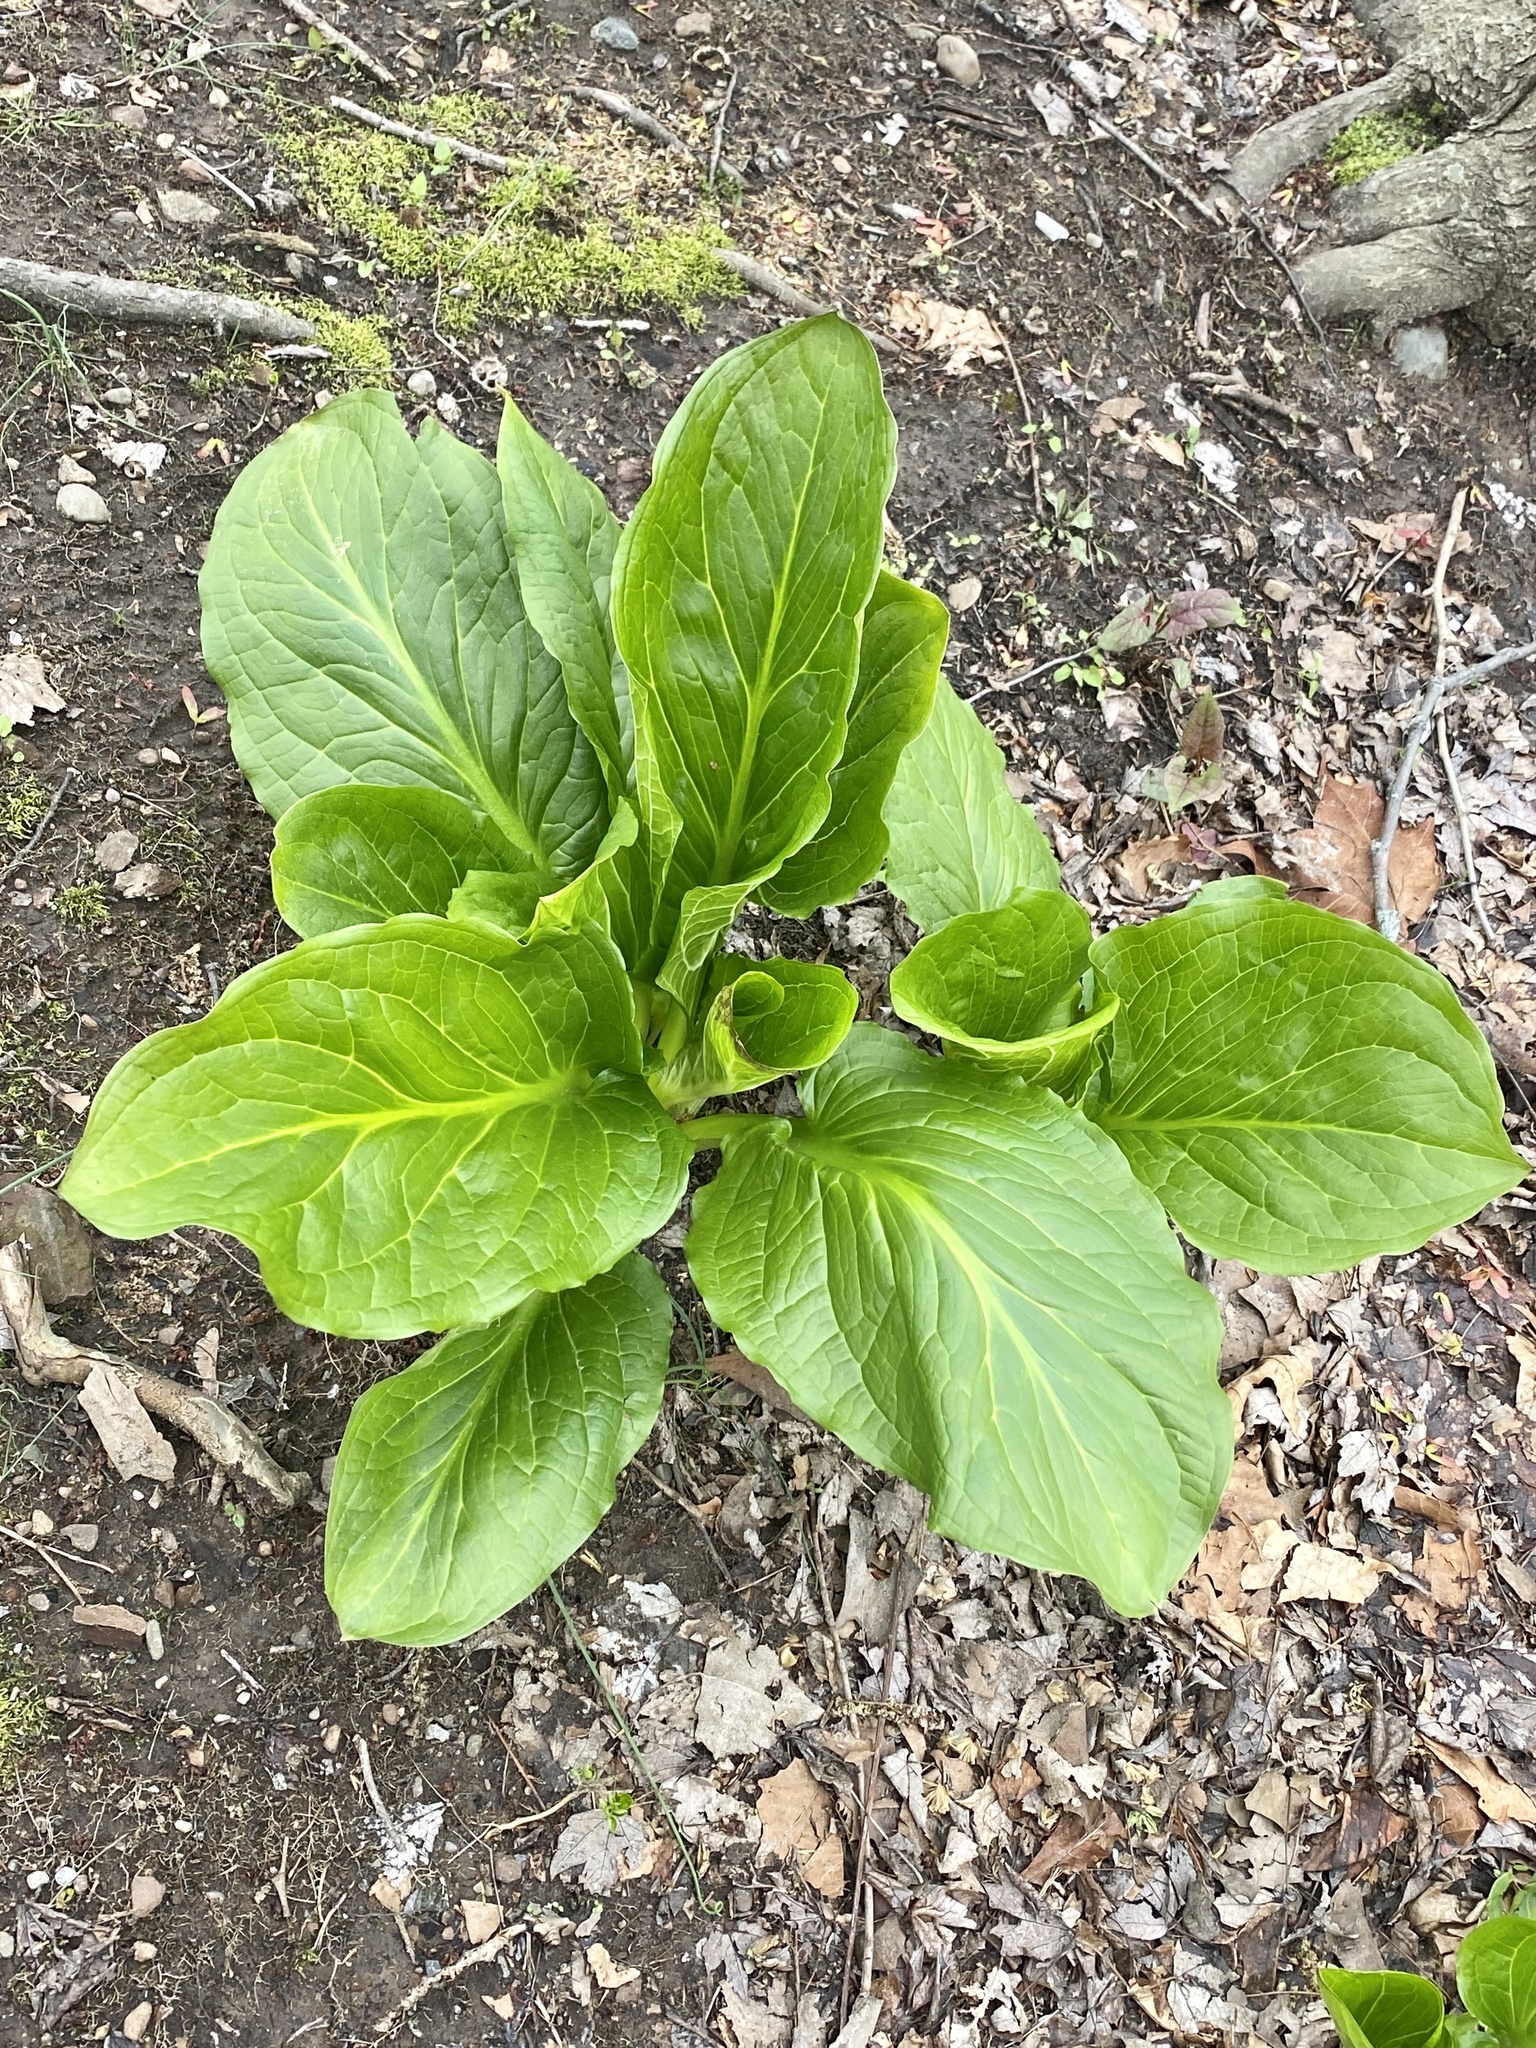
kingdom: Plantae
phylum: Tracheophyta
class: Liliopsida
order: Alismatales
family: Araceae
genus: Symplocarpus
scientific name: Symplocarpus foetidus
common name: Eastern skunk cabbage
